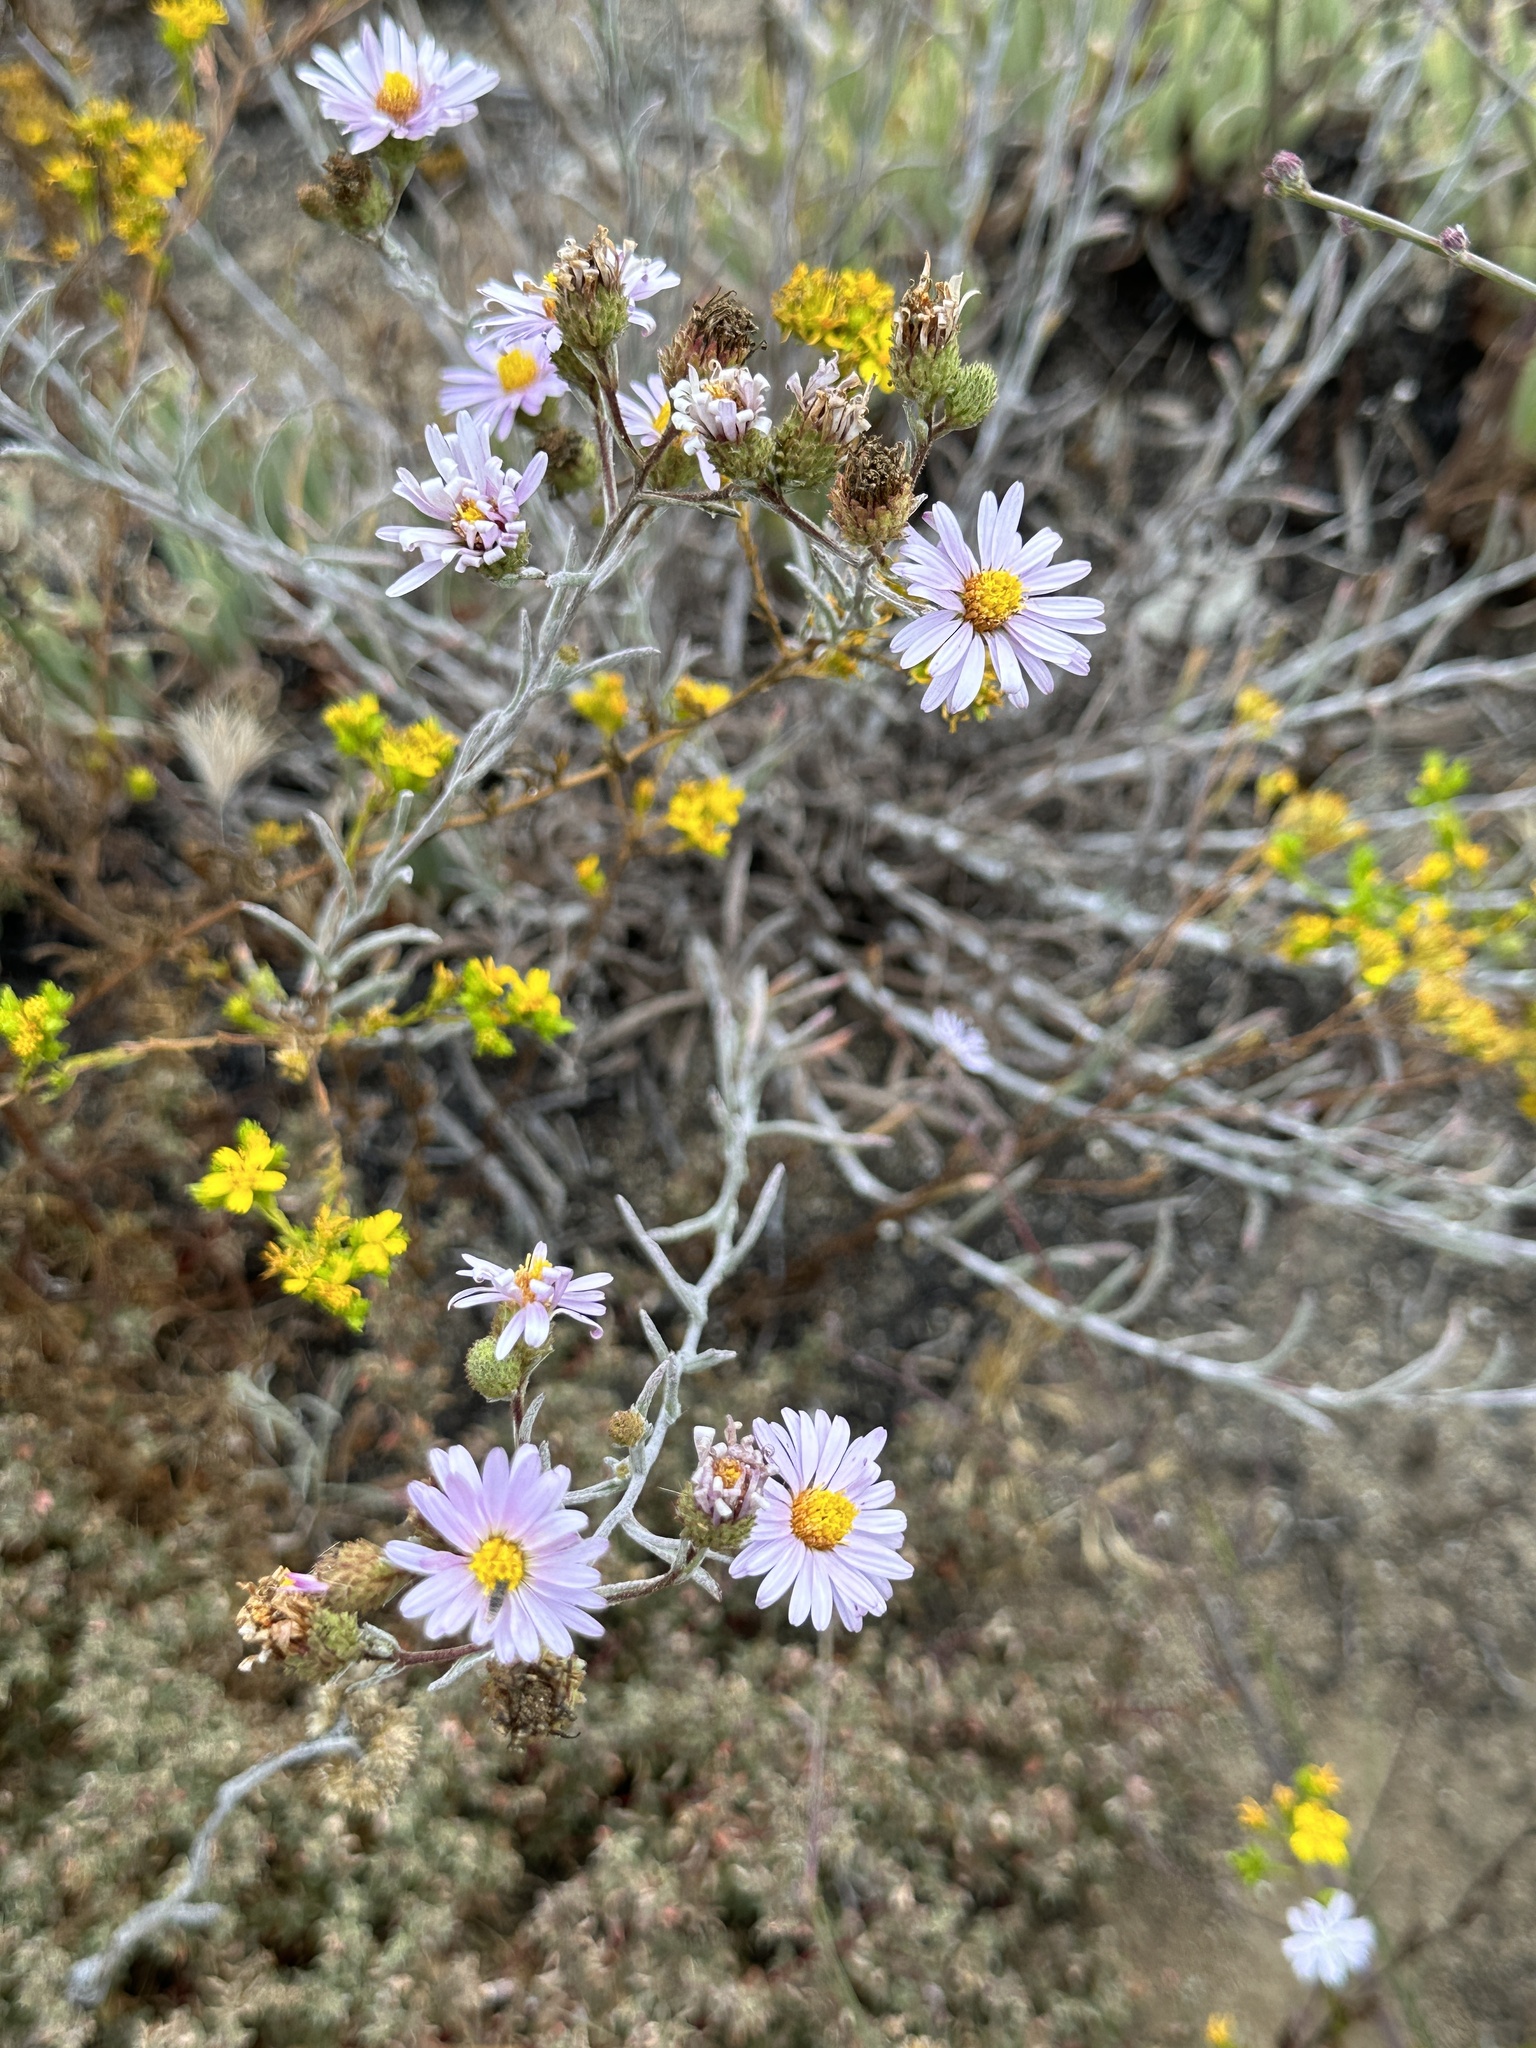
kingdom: Plantae
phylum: Tracheophyta
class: Magnoliopsida
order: Asterales
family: Asteraceae
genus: Corethrogyne
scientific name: Corethrogyne filaginifolia
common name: Sand-aster
